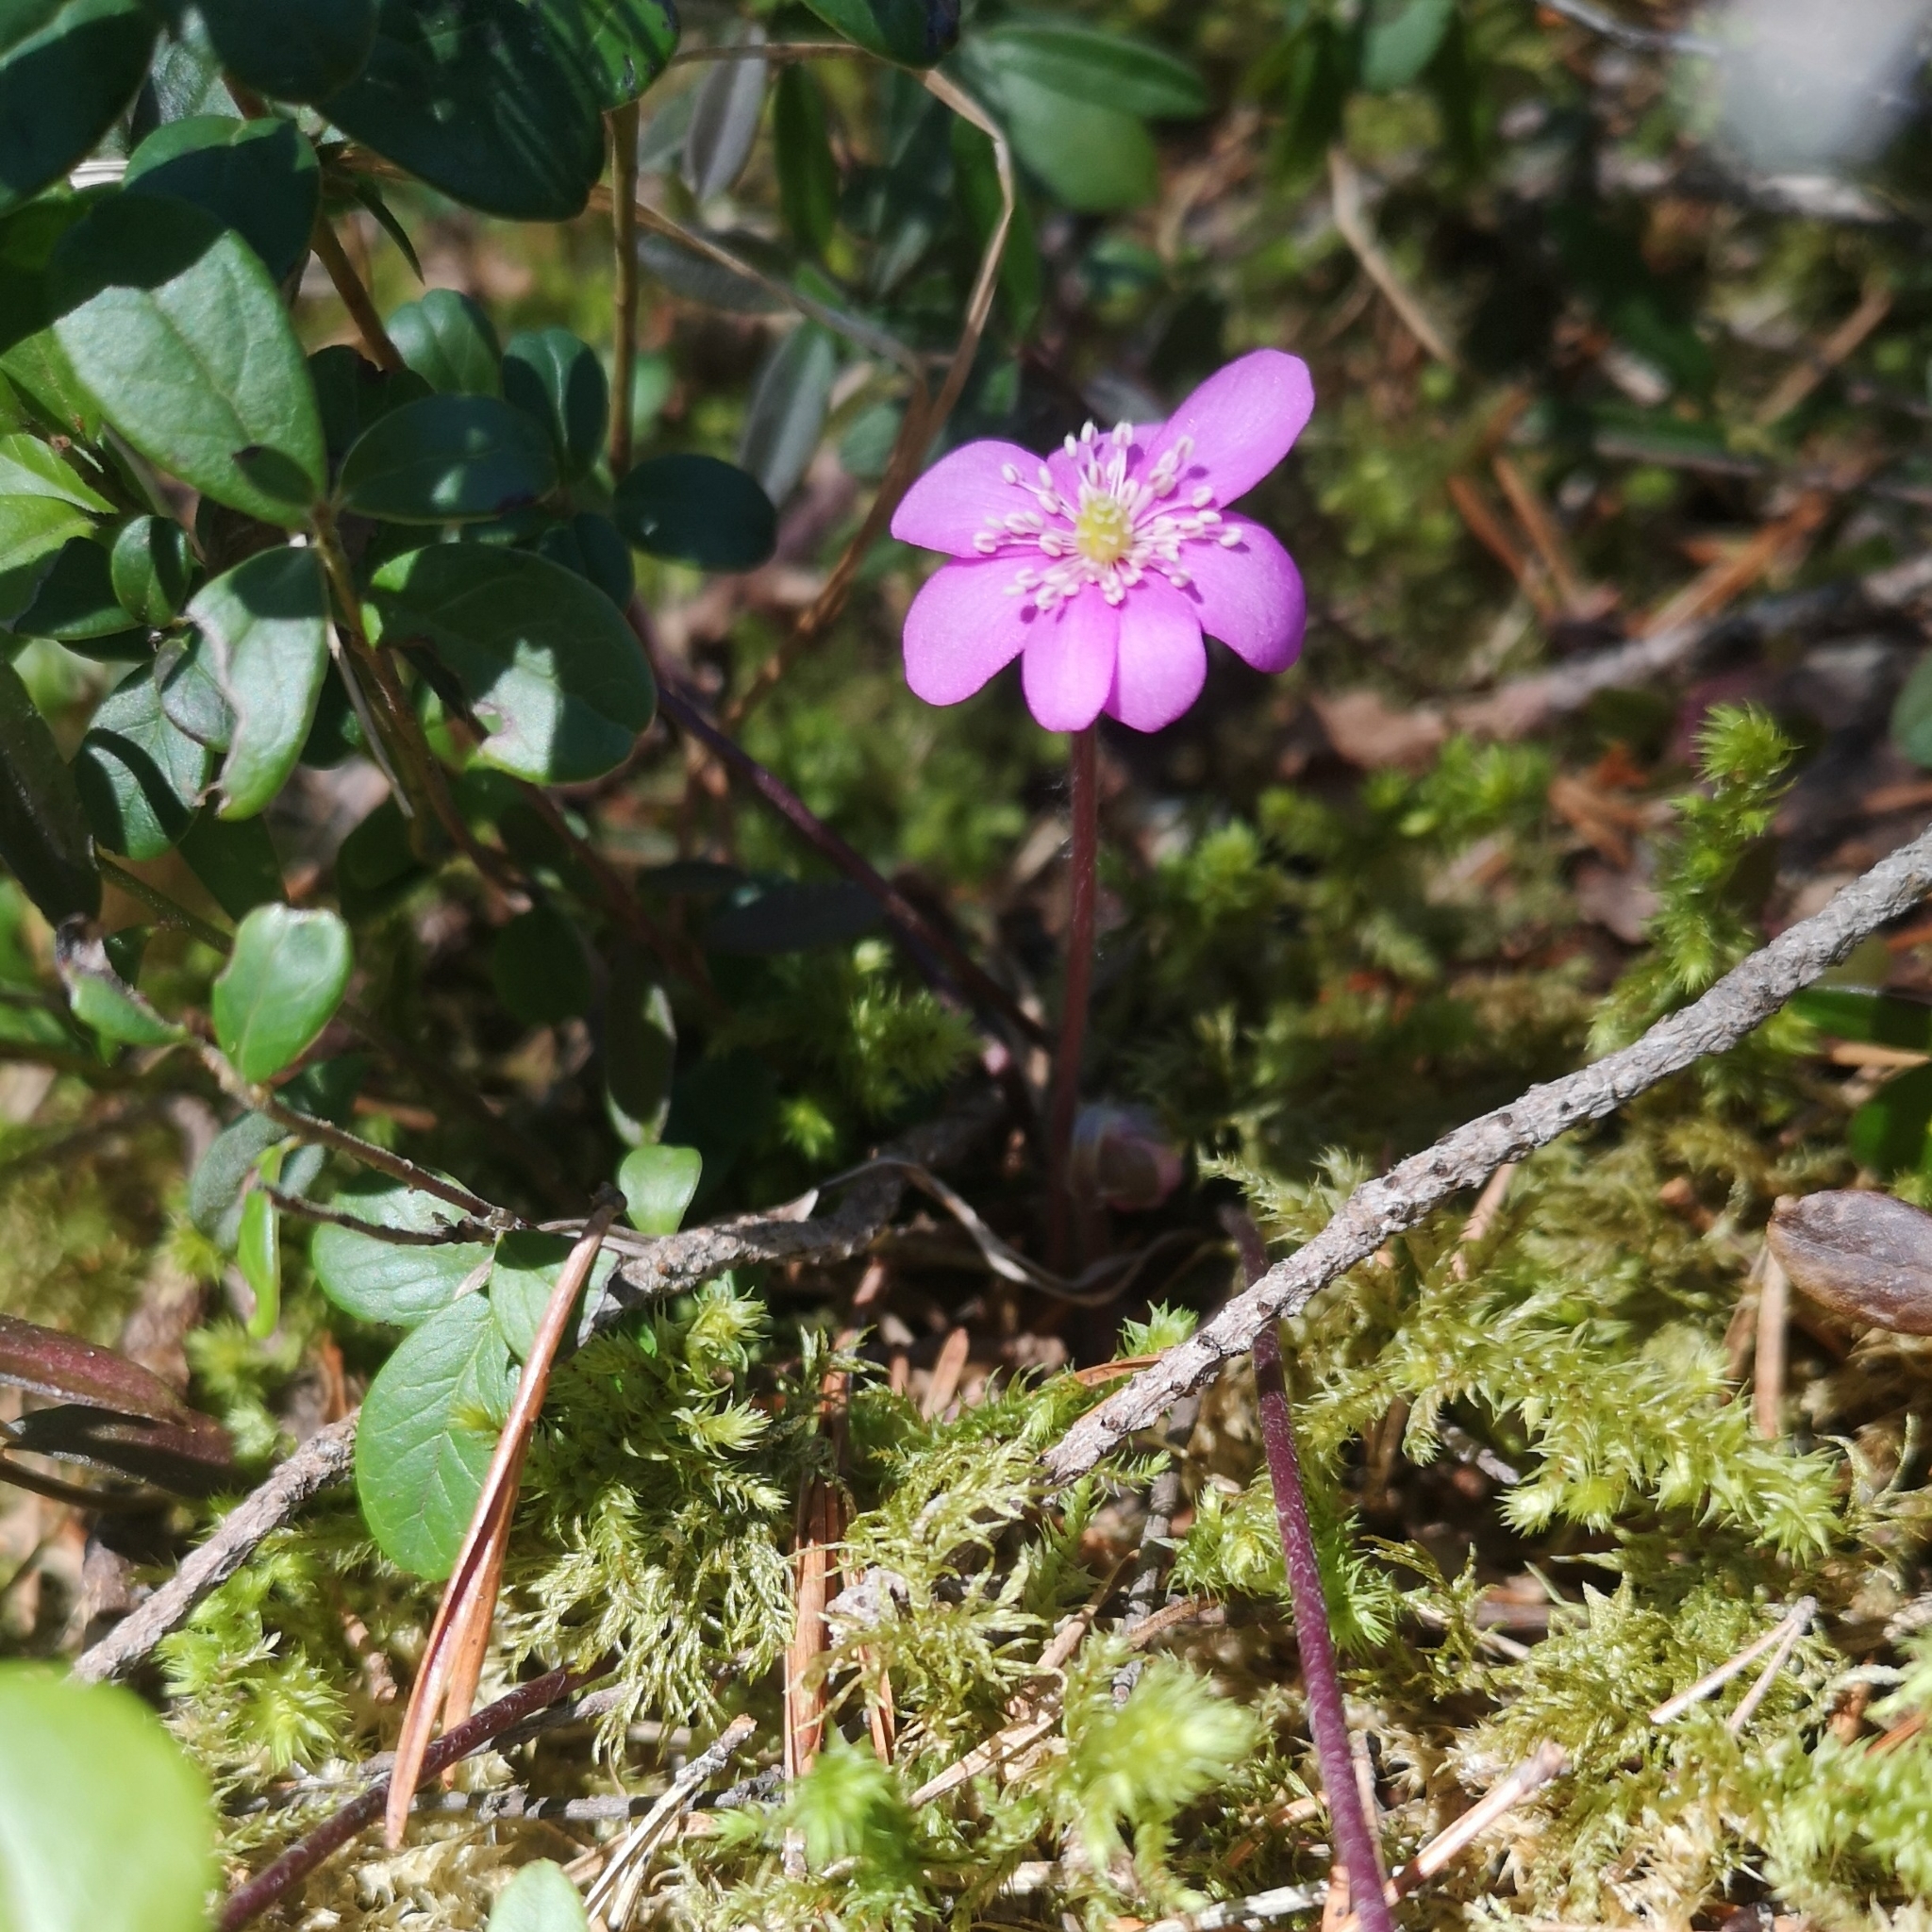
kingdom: Plantae
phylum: Tracheophyta
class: Magnoliopsida
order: Ranunculales
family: Ranunculaceae
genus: Hepatica
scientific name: Hepatica nobilis
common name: Liverleaf
